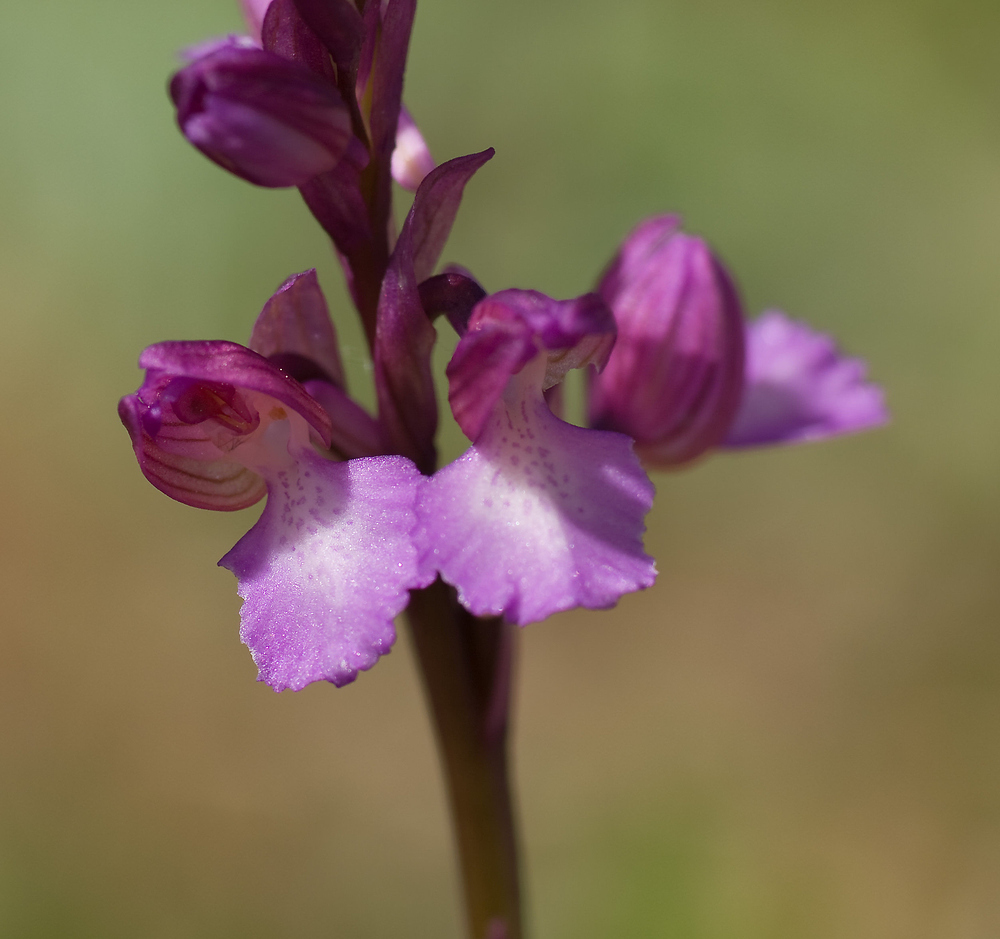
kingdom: Plantae
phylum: Tracheophyta
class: Liliopsida
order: Asparagales
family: Orchidaceae
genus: Anacamptis
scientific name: Anacamptis gennarii
